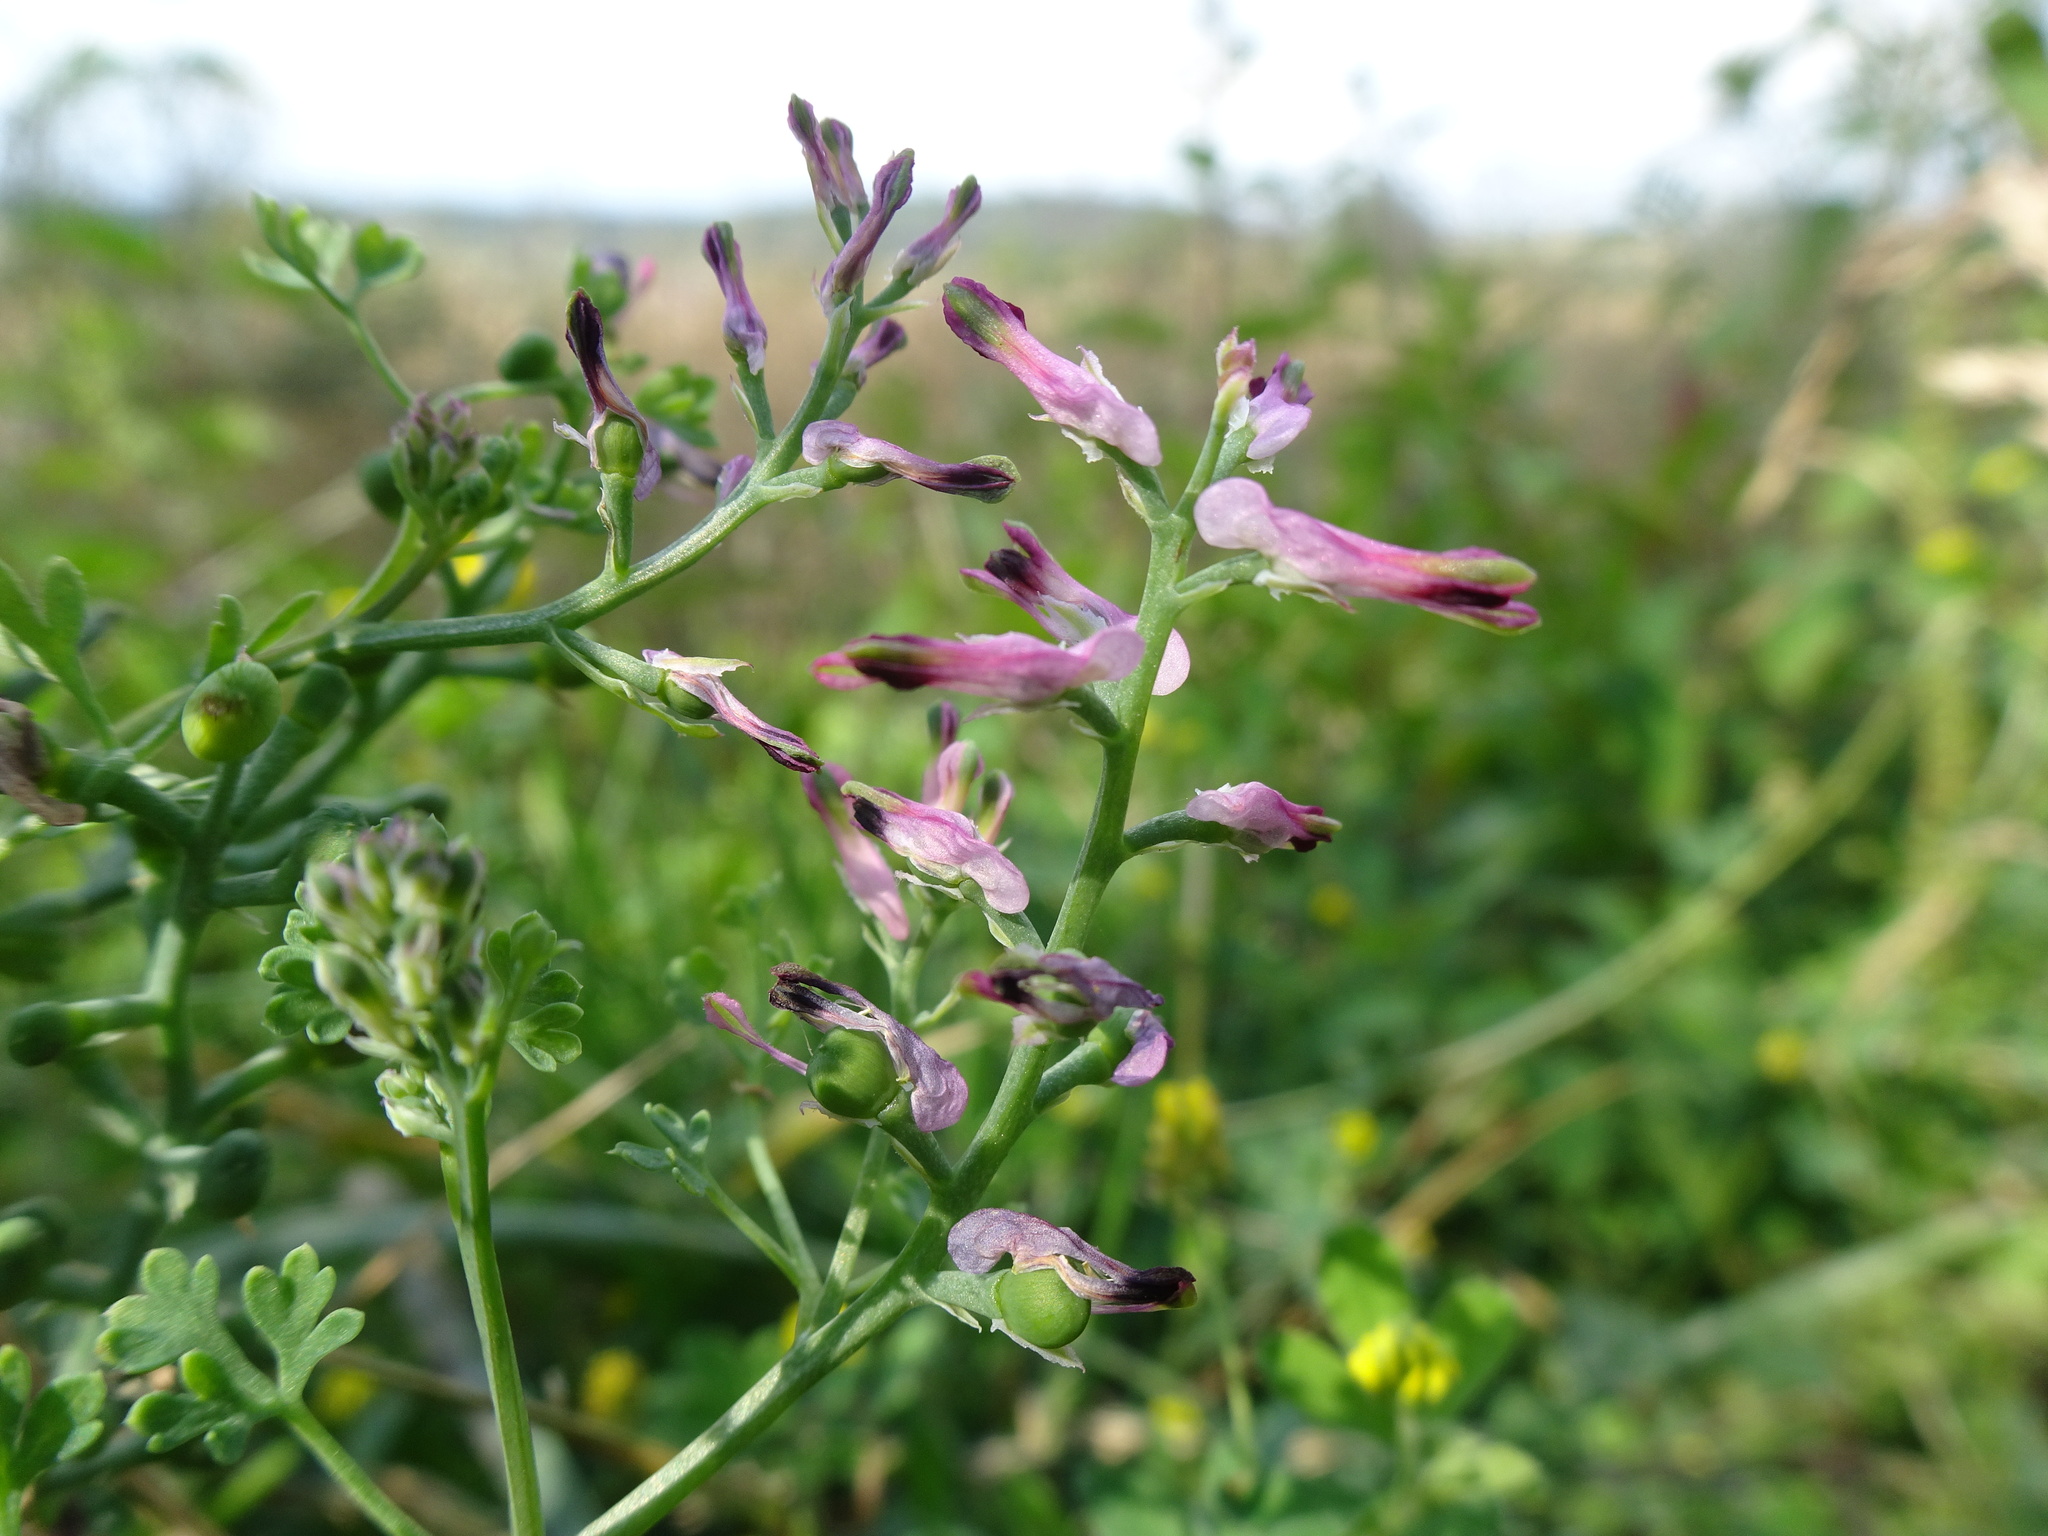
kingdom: Plantae
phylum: Tracheophyta
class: Magnoliopsida
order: Ranunculales
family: Papaveraceae
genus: Fumaria
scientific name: Fumaria officinalis
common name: Common fumitory
